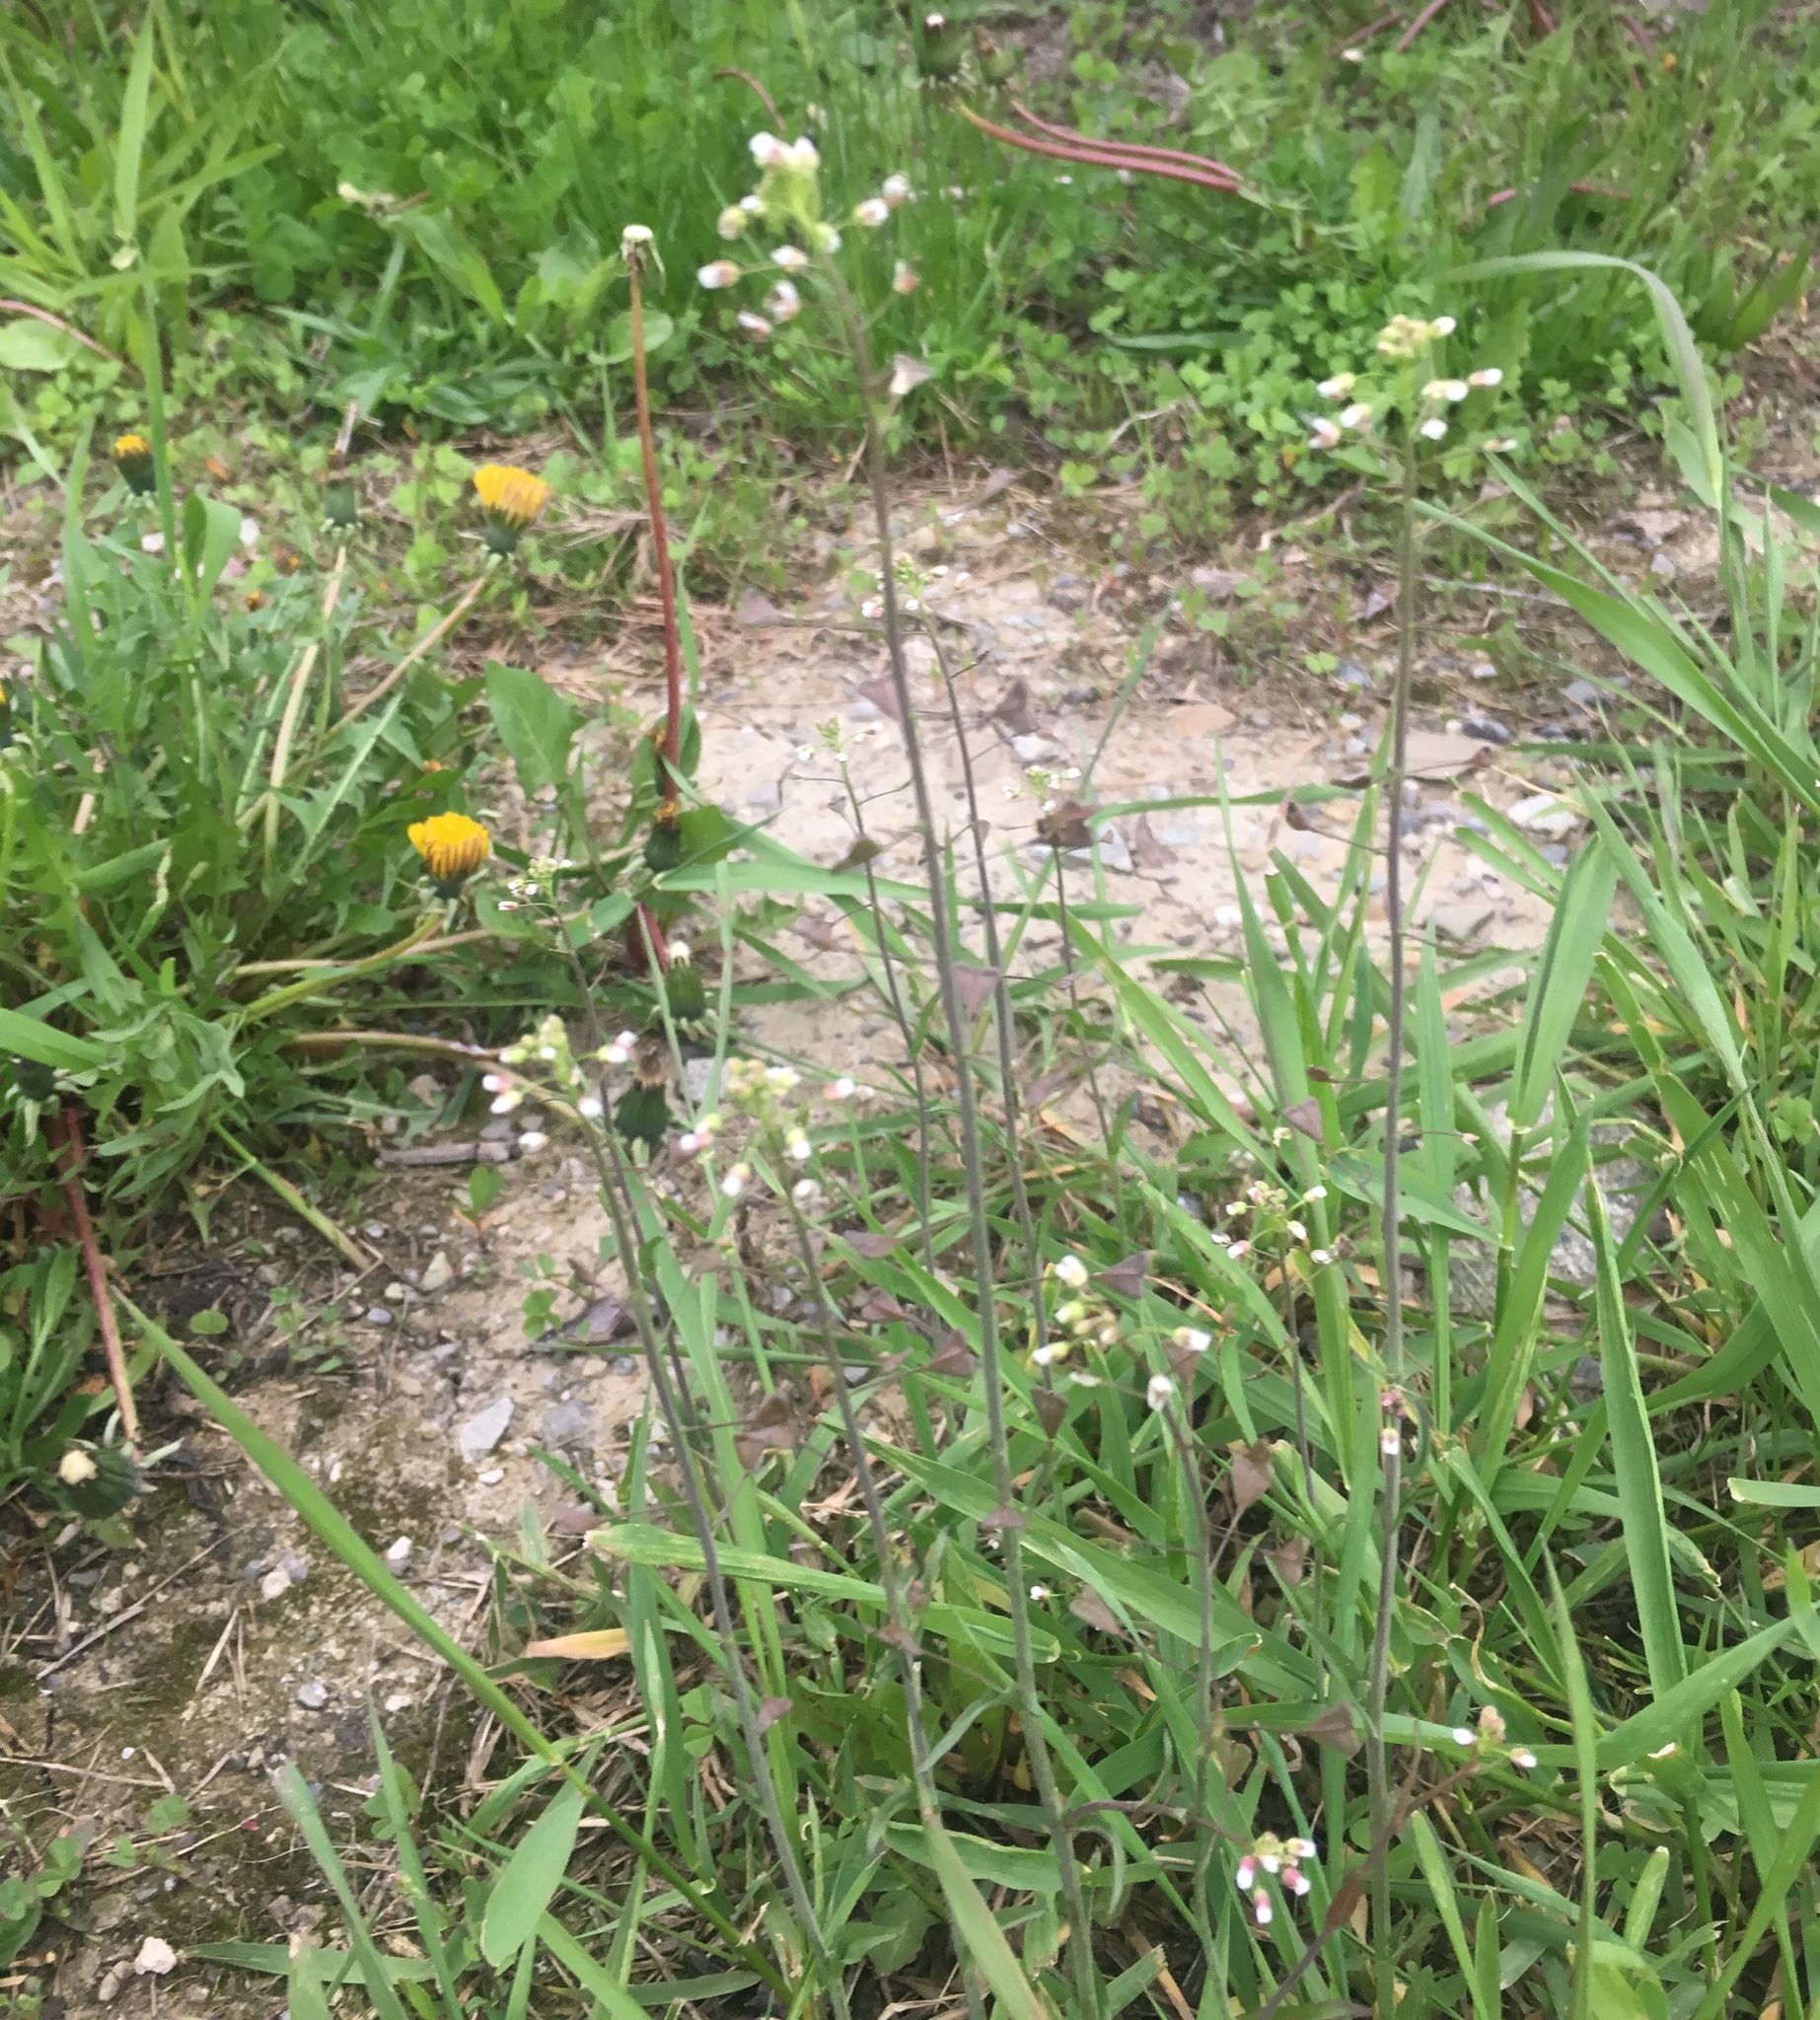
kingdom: Plantae
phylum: Tracheophyta
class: Magnoliopsida
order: Brassicales
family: Brassicaceae
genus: Capsella
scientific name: Capsella bursa-pastoris
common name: Shepherd's purse
